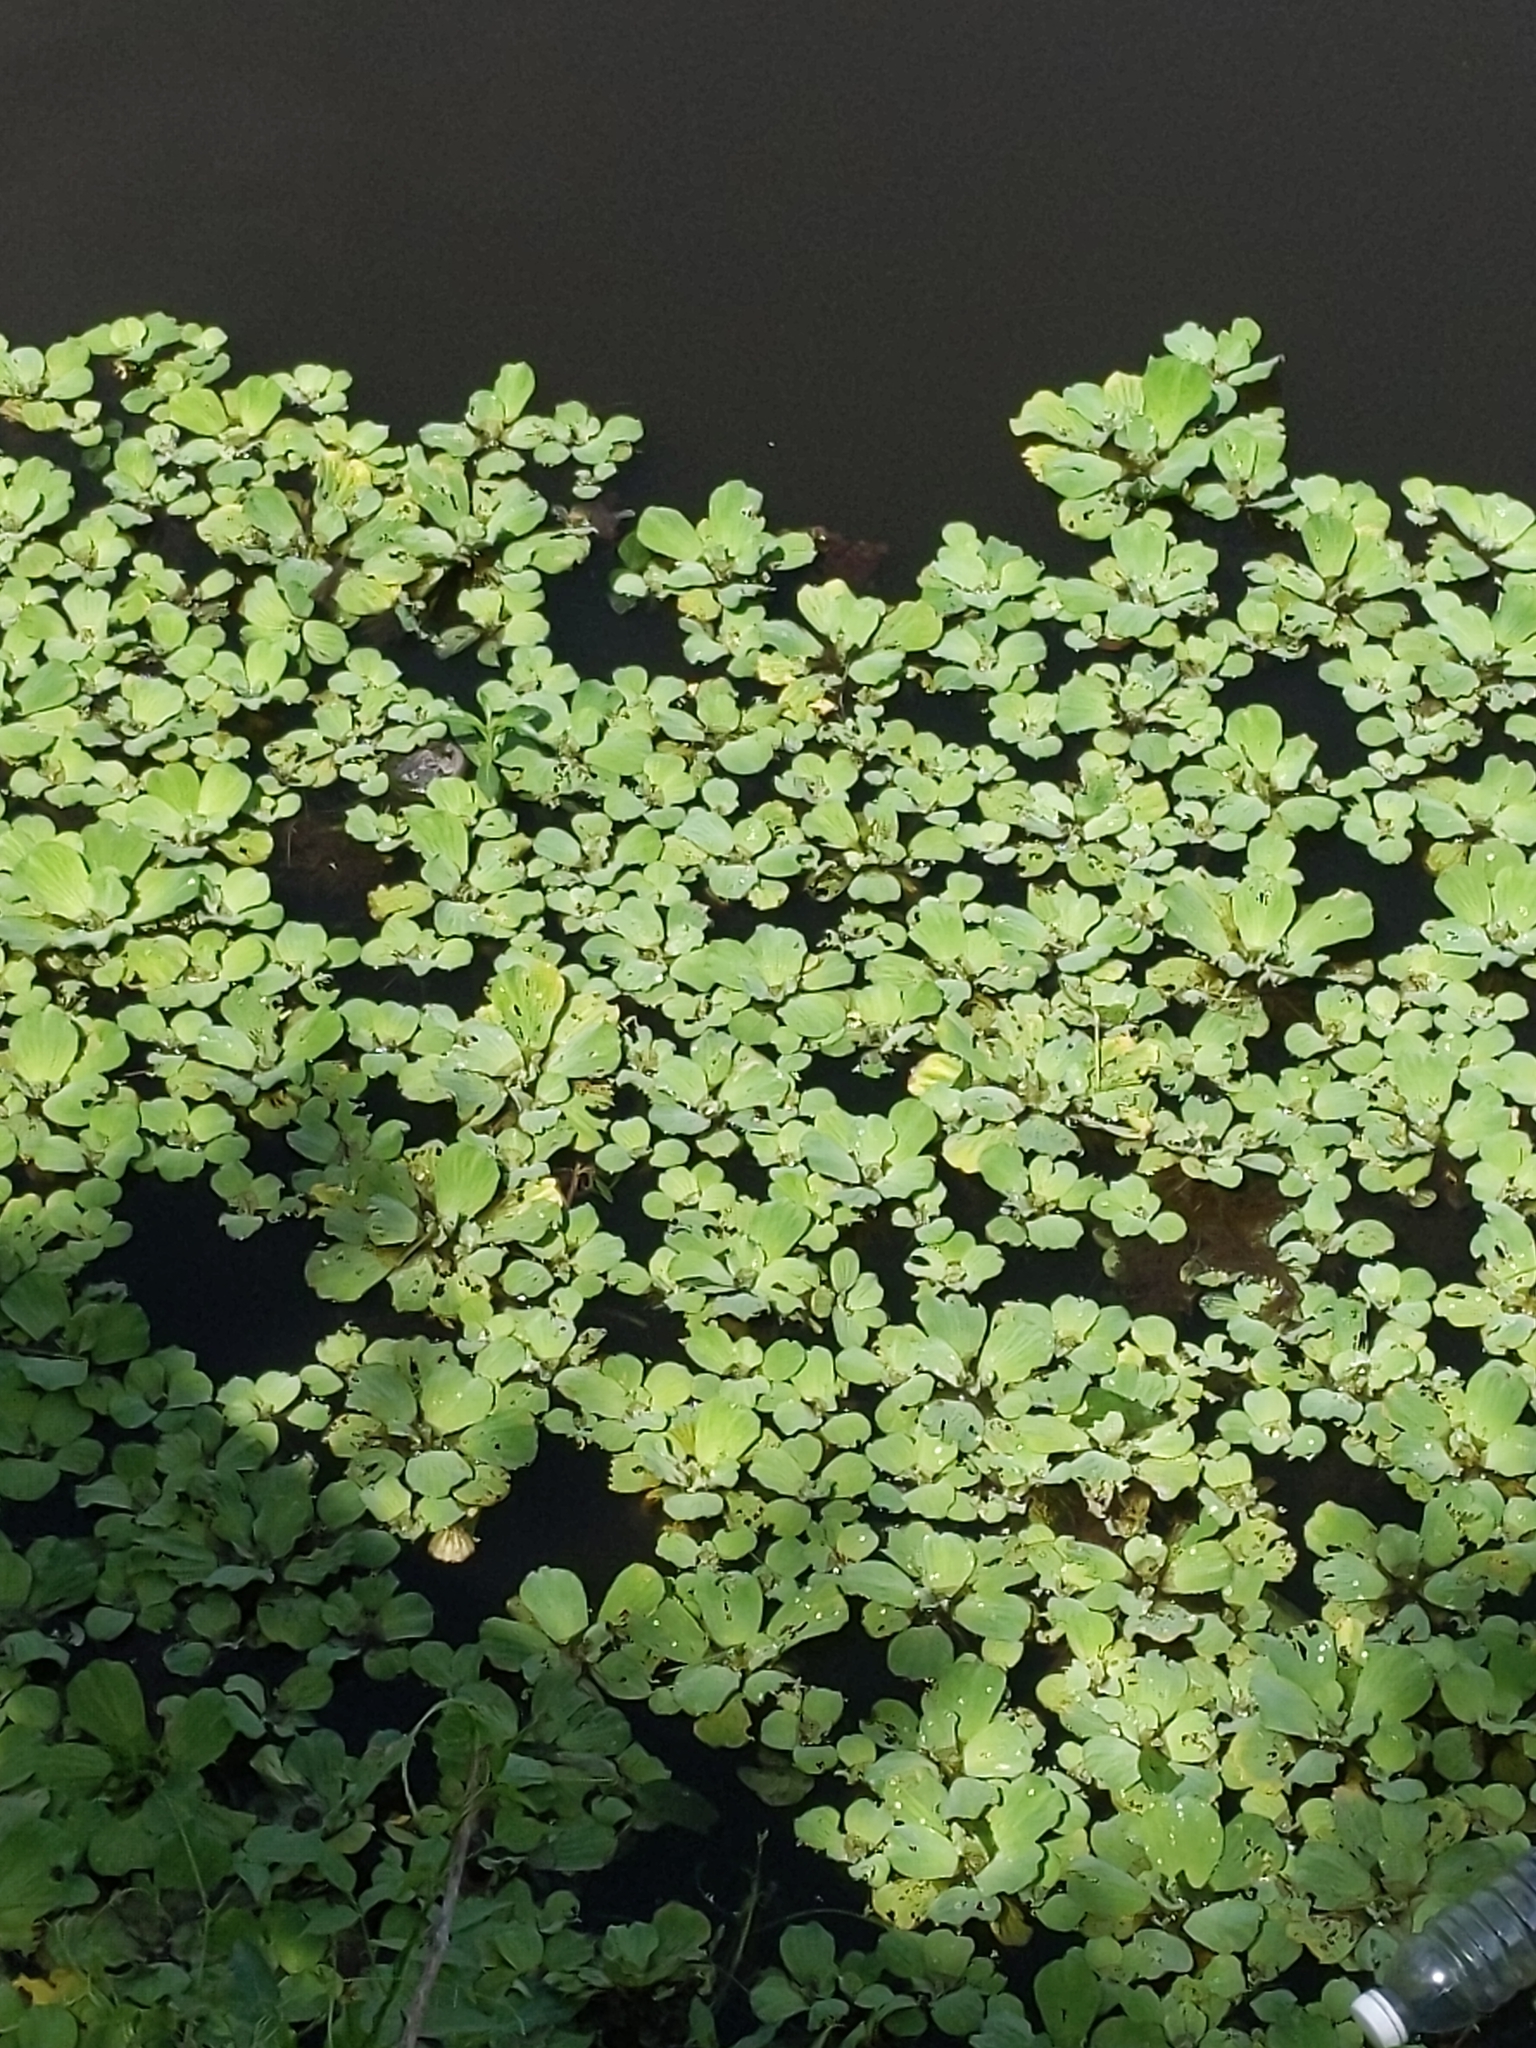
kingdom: Plantae
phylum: Tracheophyta
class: Liliopsida
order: Alismatales
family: Araceae
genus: Pistia
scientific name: Pistia stratiotes
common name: Water lettuce
